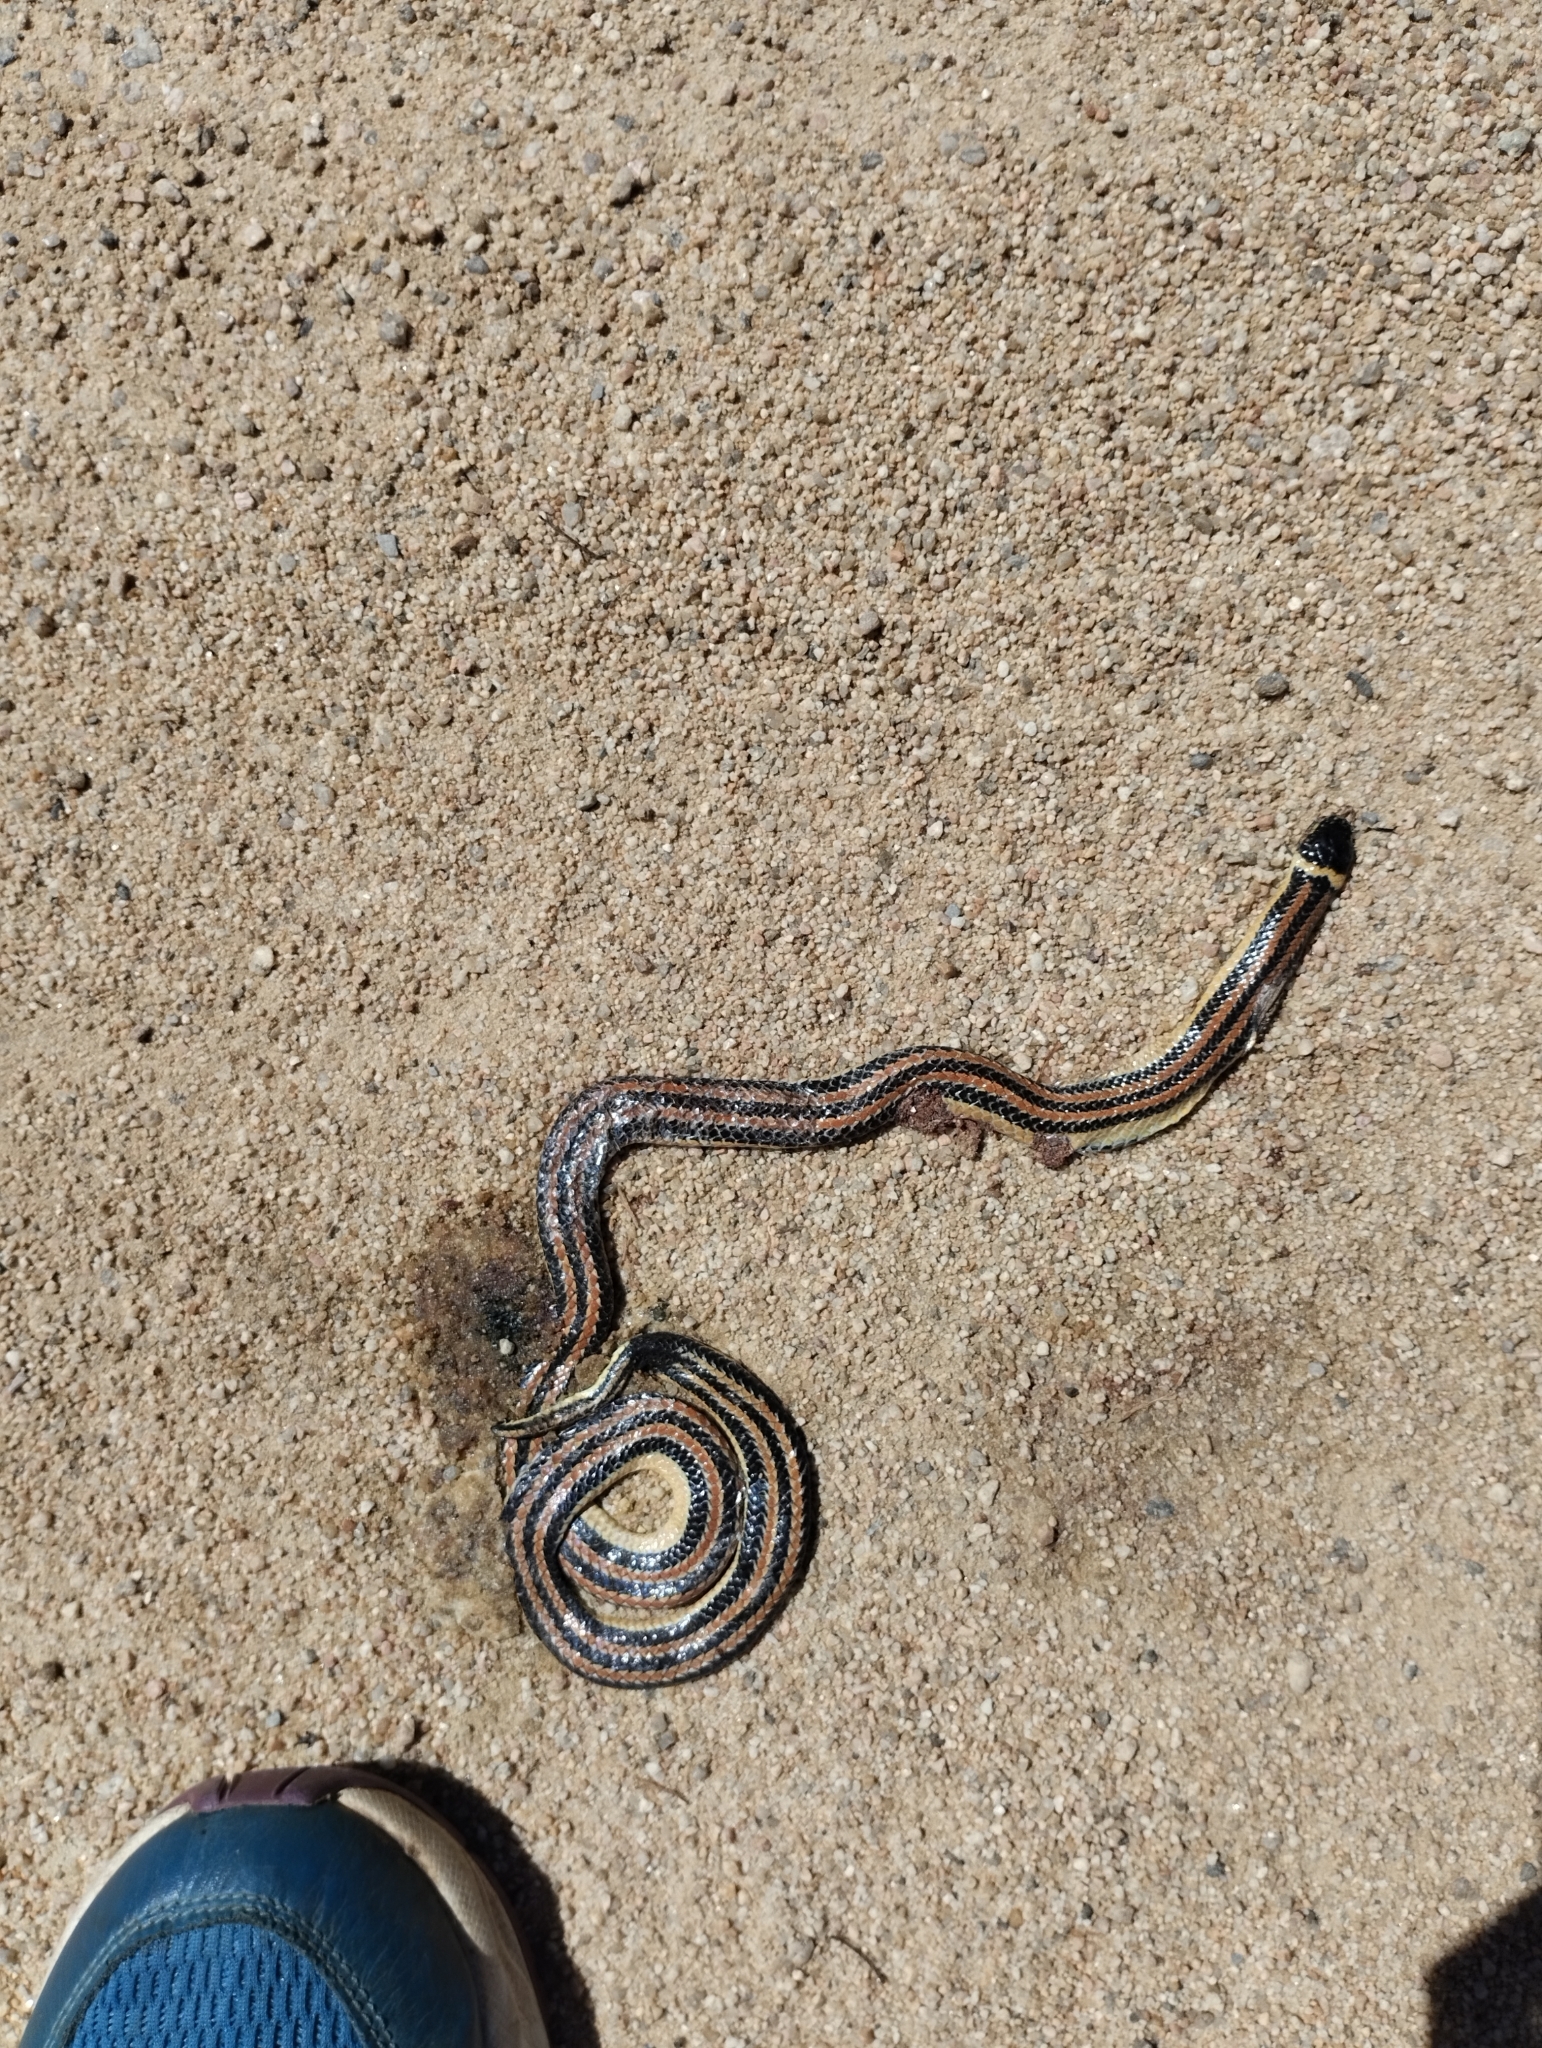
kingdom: Animalia
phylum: Chordata
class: Squamata
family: Colubridae
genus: Phalotris
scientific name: Phalotris lemniscatus
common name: Dumeril's diadem snake
